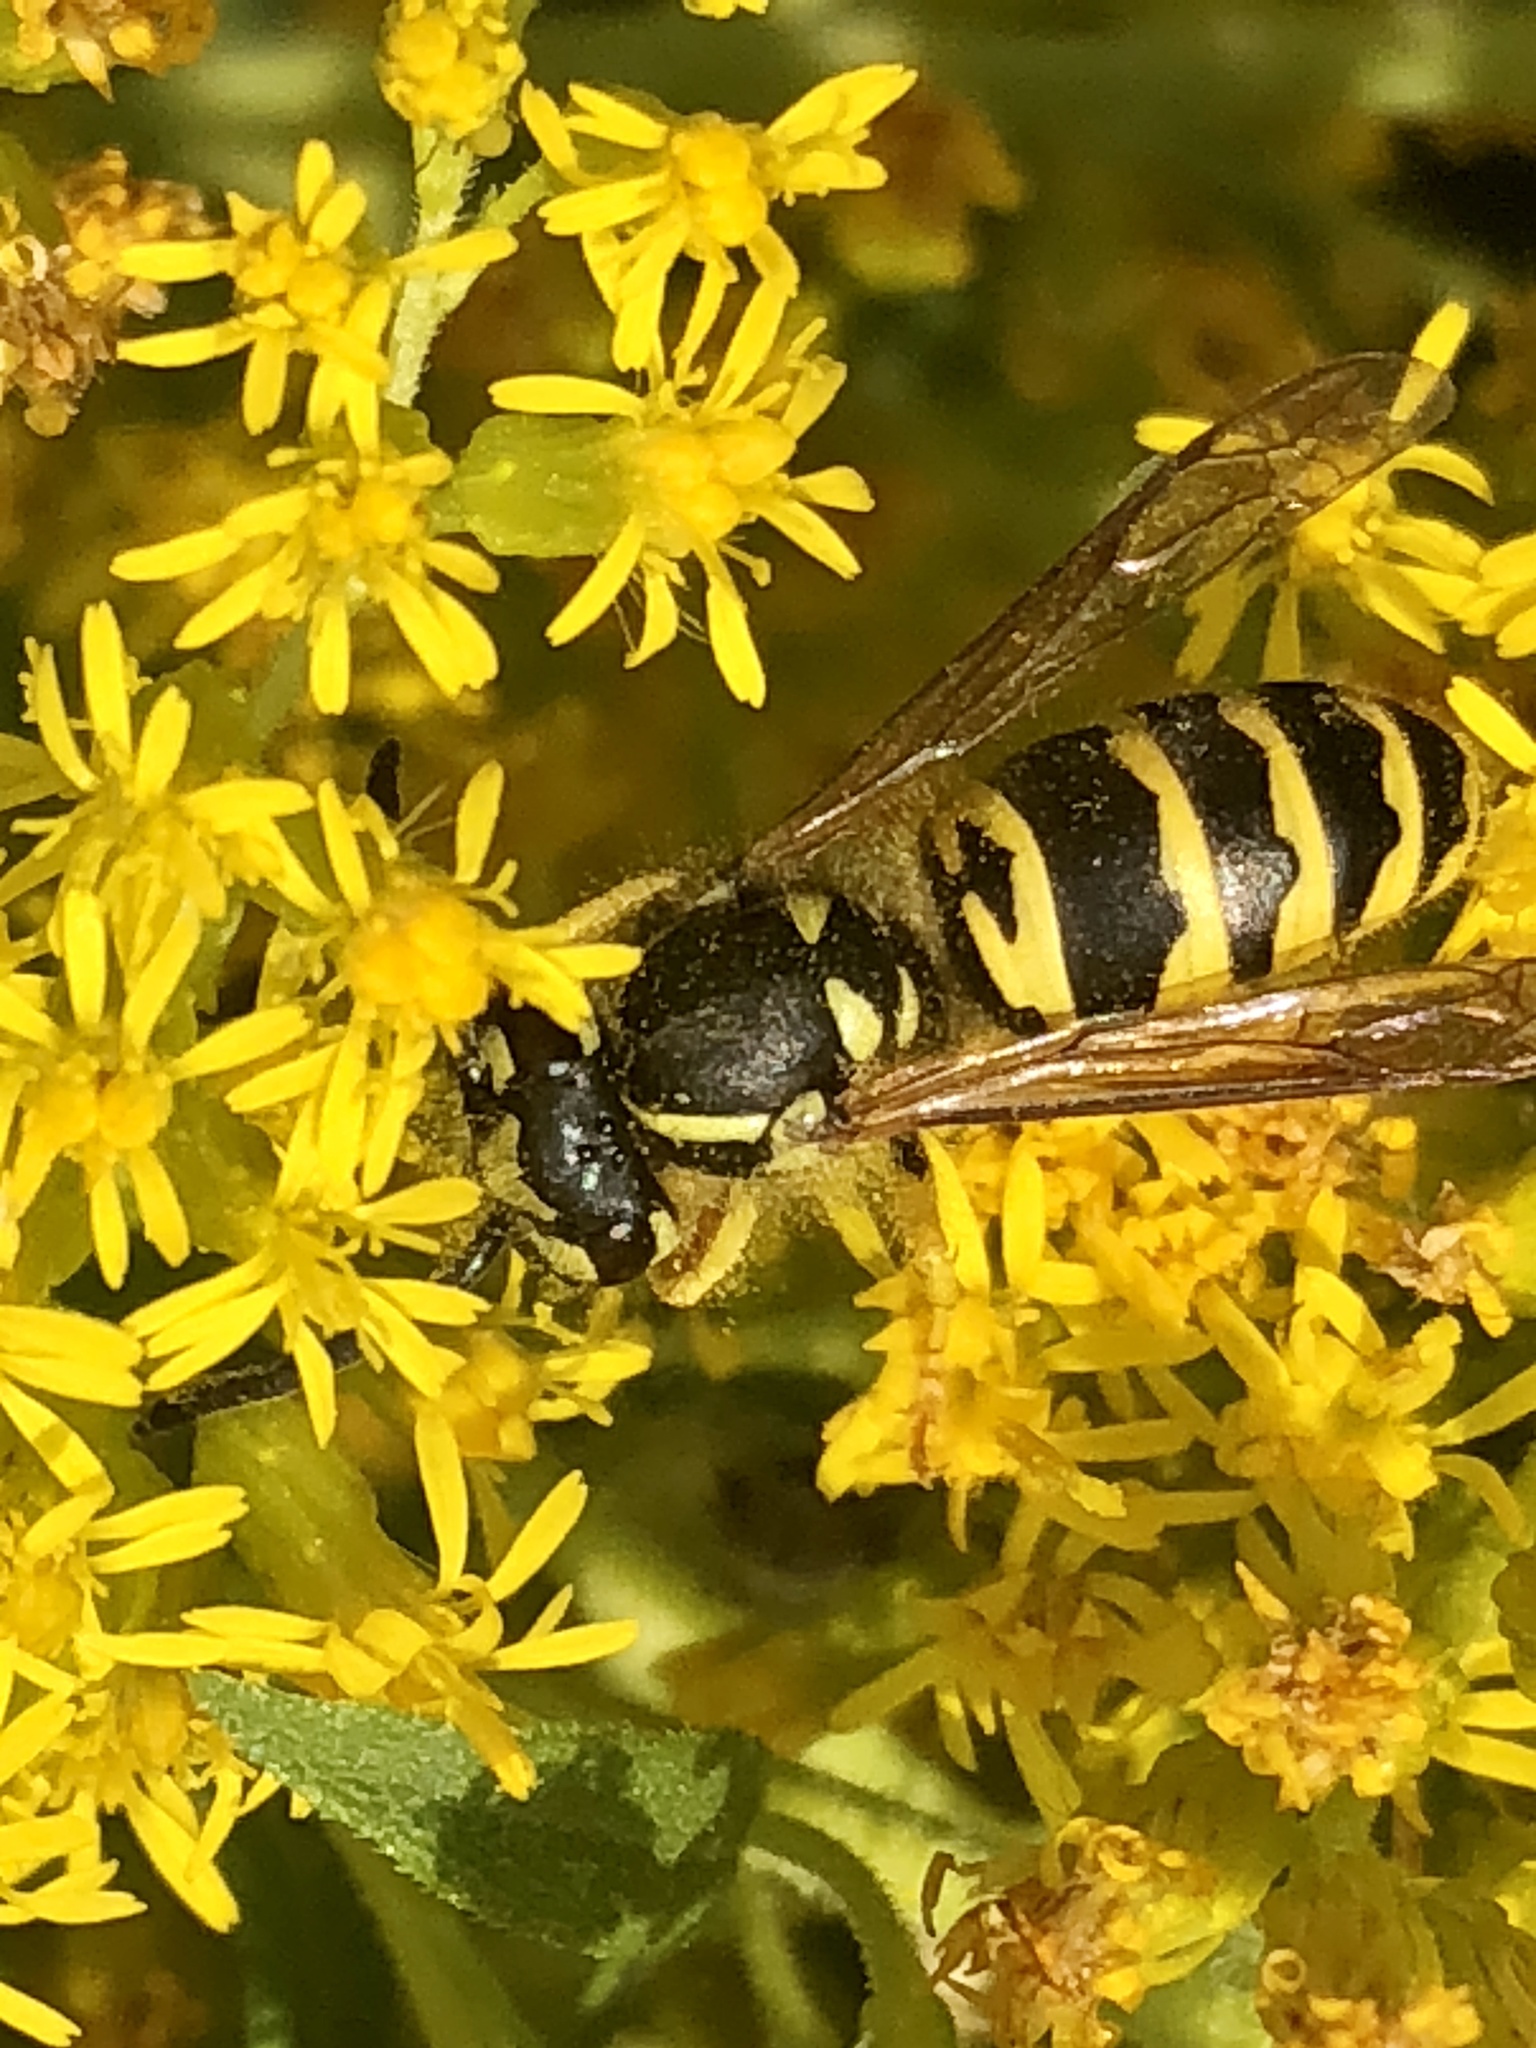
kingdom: Animalia
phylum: Arthropoda
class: Insecta
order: Hymenoptera
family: Vespidae
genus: Vespula
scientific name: Vespula maculifrons
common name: Eastern yellowjacket
